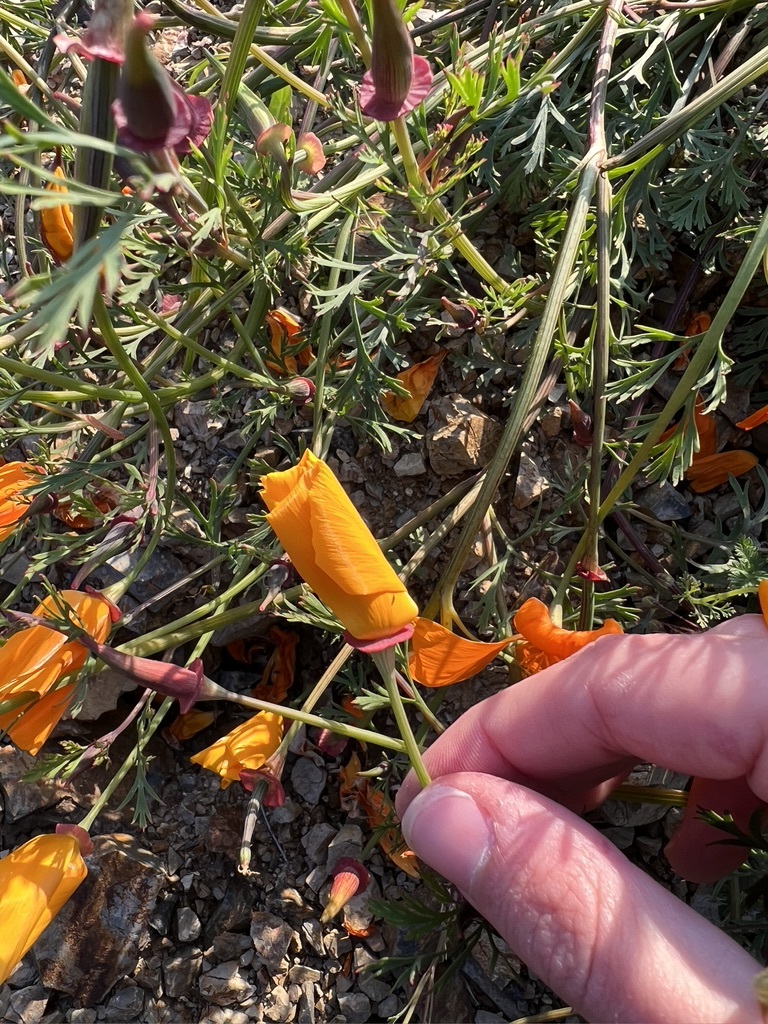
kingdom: Plantae
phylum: Tracheophyta
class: Magnoliopsida
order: Ranunculales
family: Papaveraceae
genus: Eschscholzia
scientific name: Eschscholzia californica
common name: California poppy
